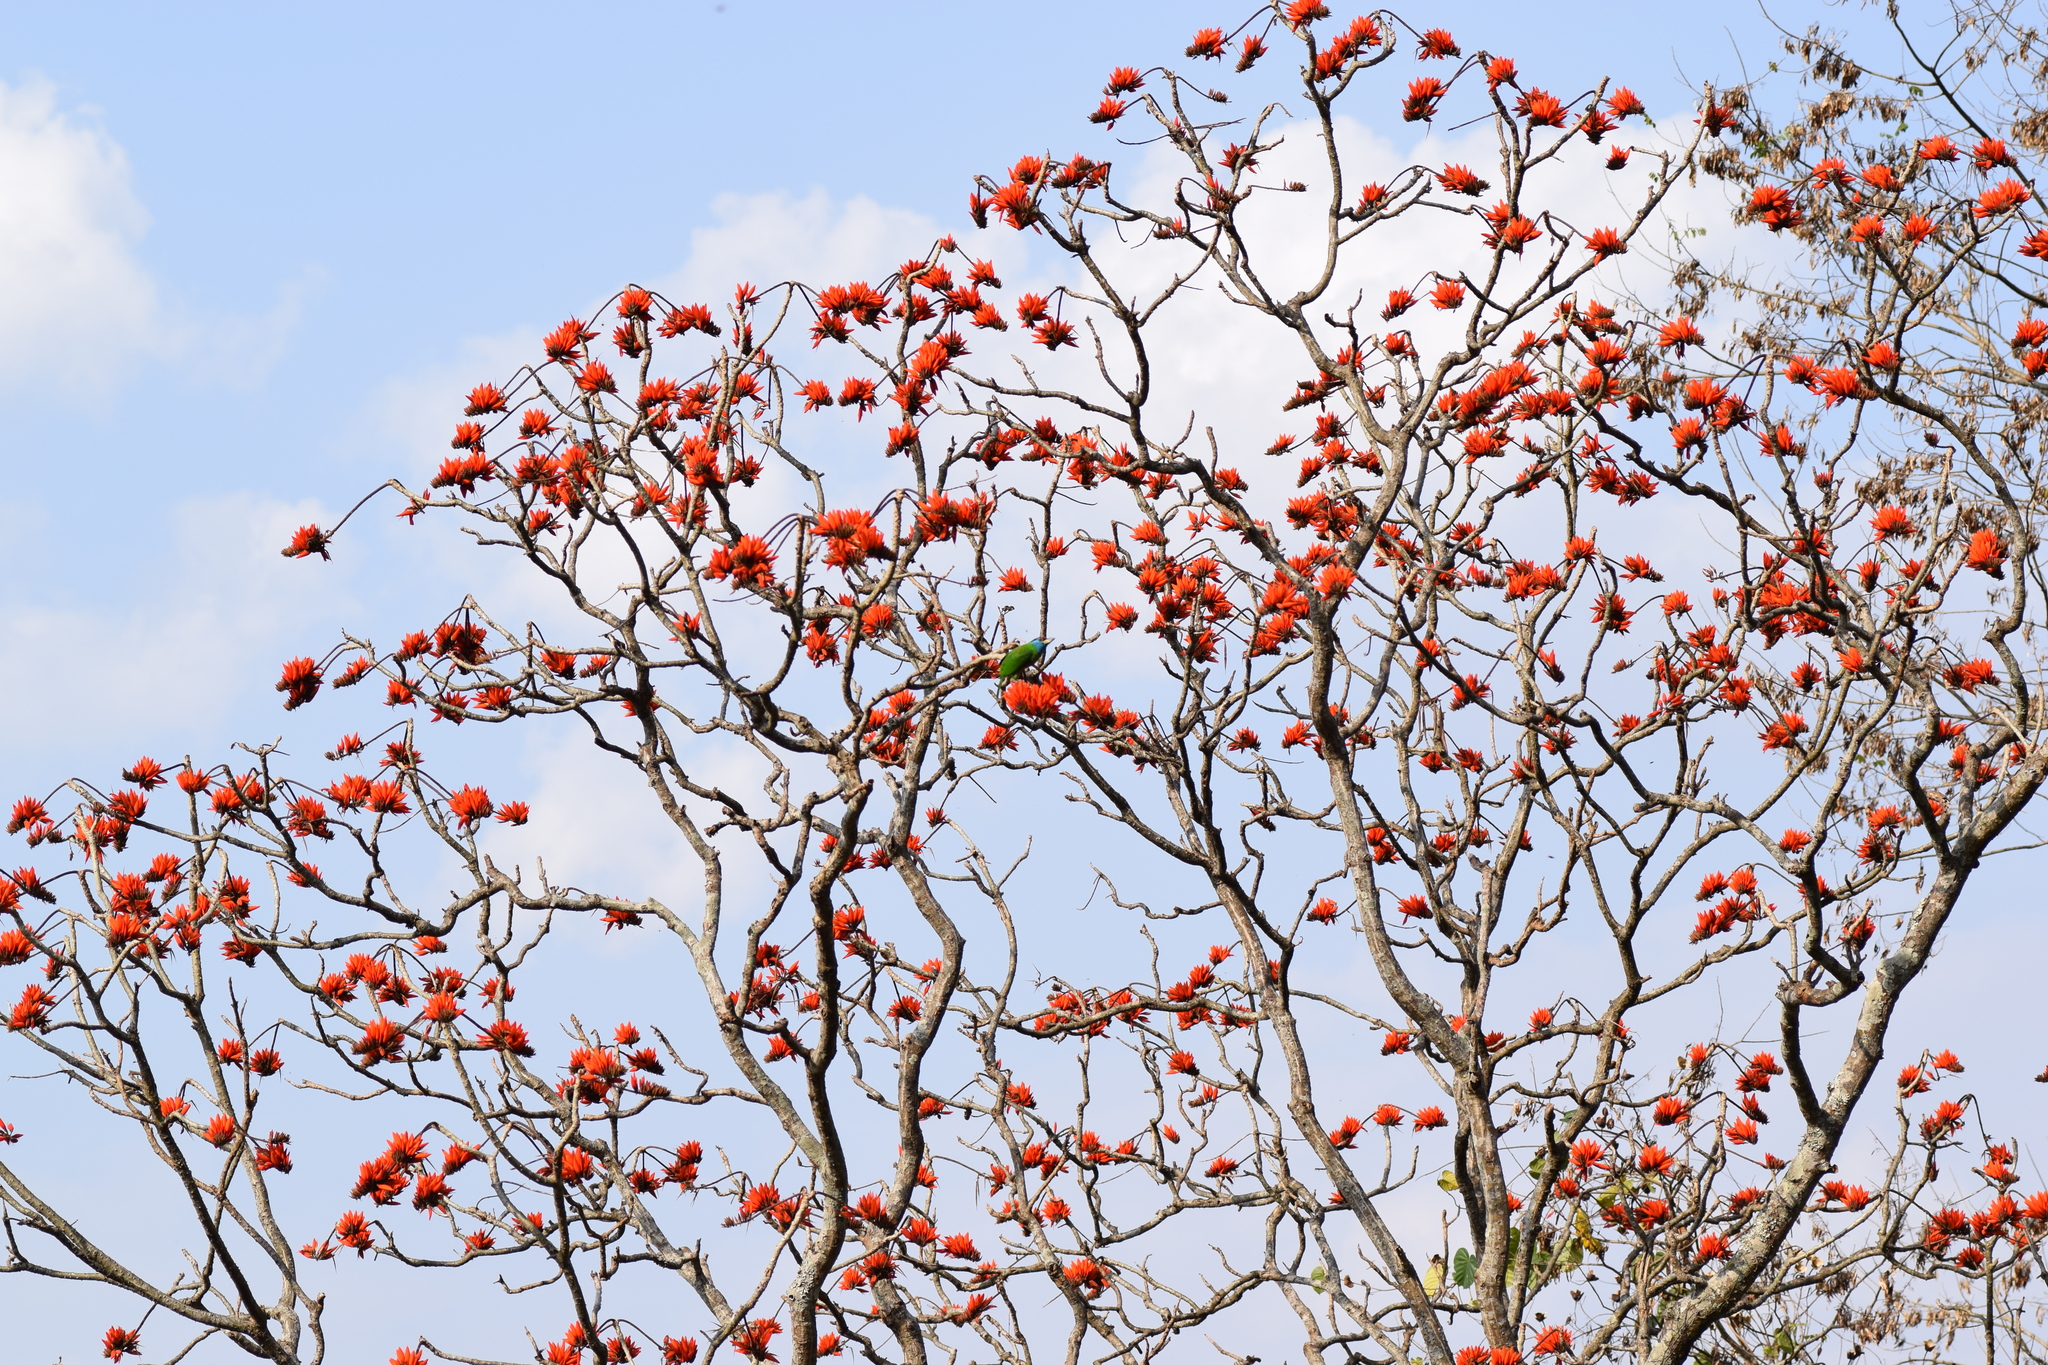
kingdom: Animalia
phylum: Chordata
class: Aves
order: Piciformes
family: Megalaimidae
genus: Psilopogon
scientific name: Psilopogon asiaticus
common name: Blue-throated barbet
